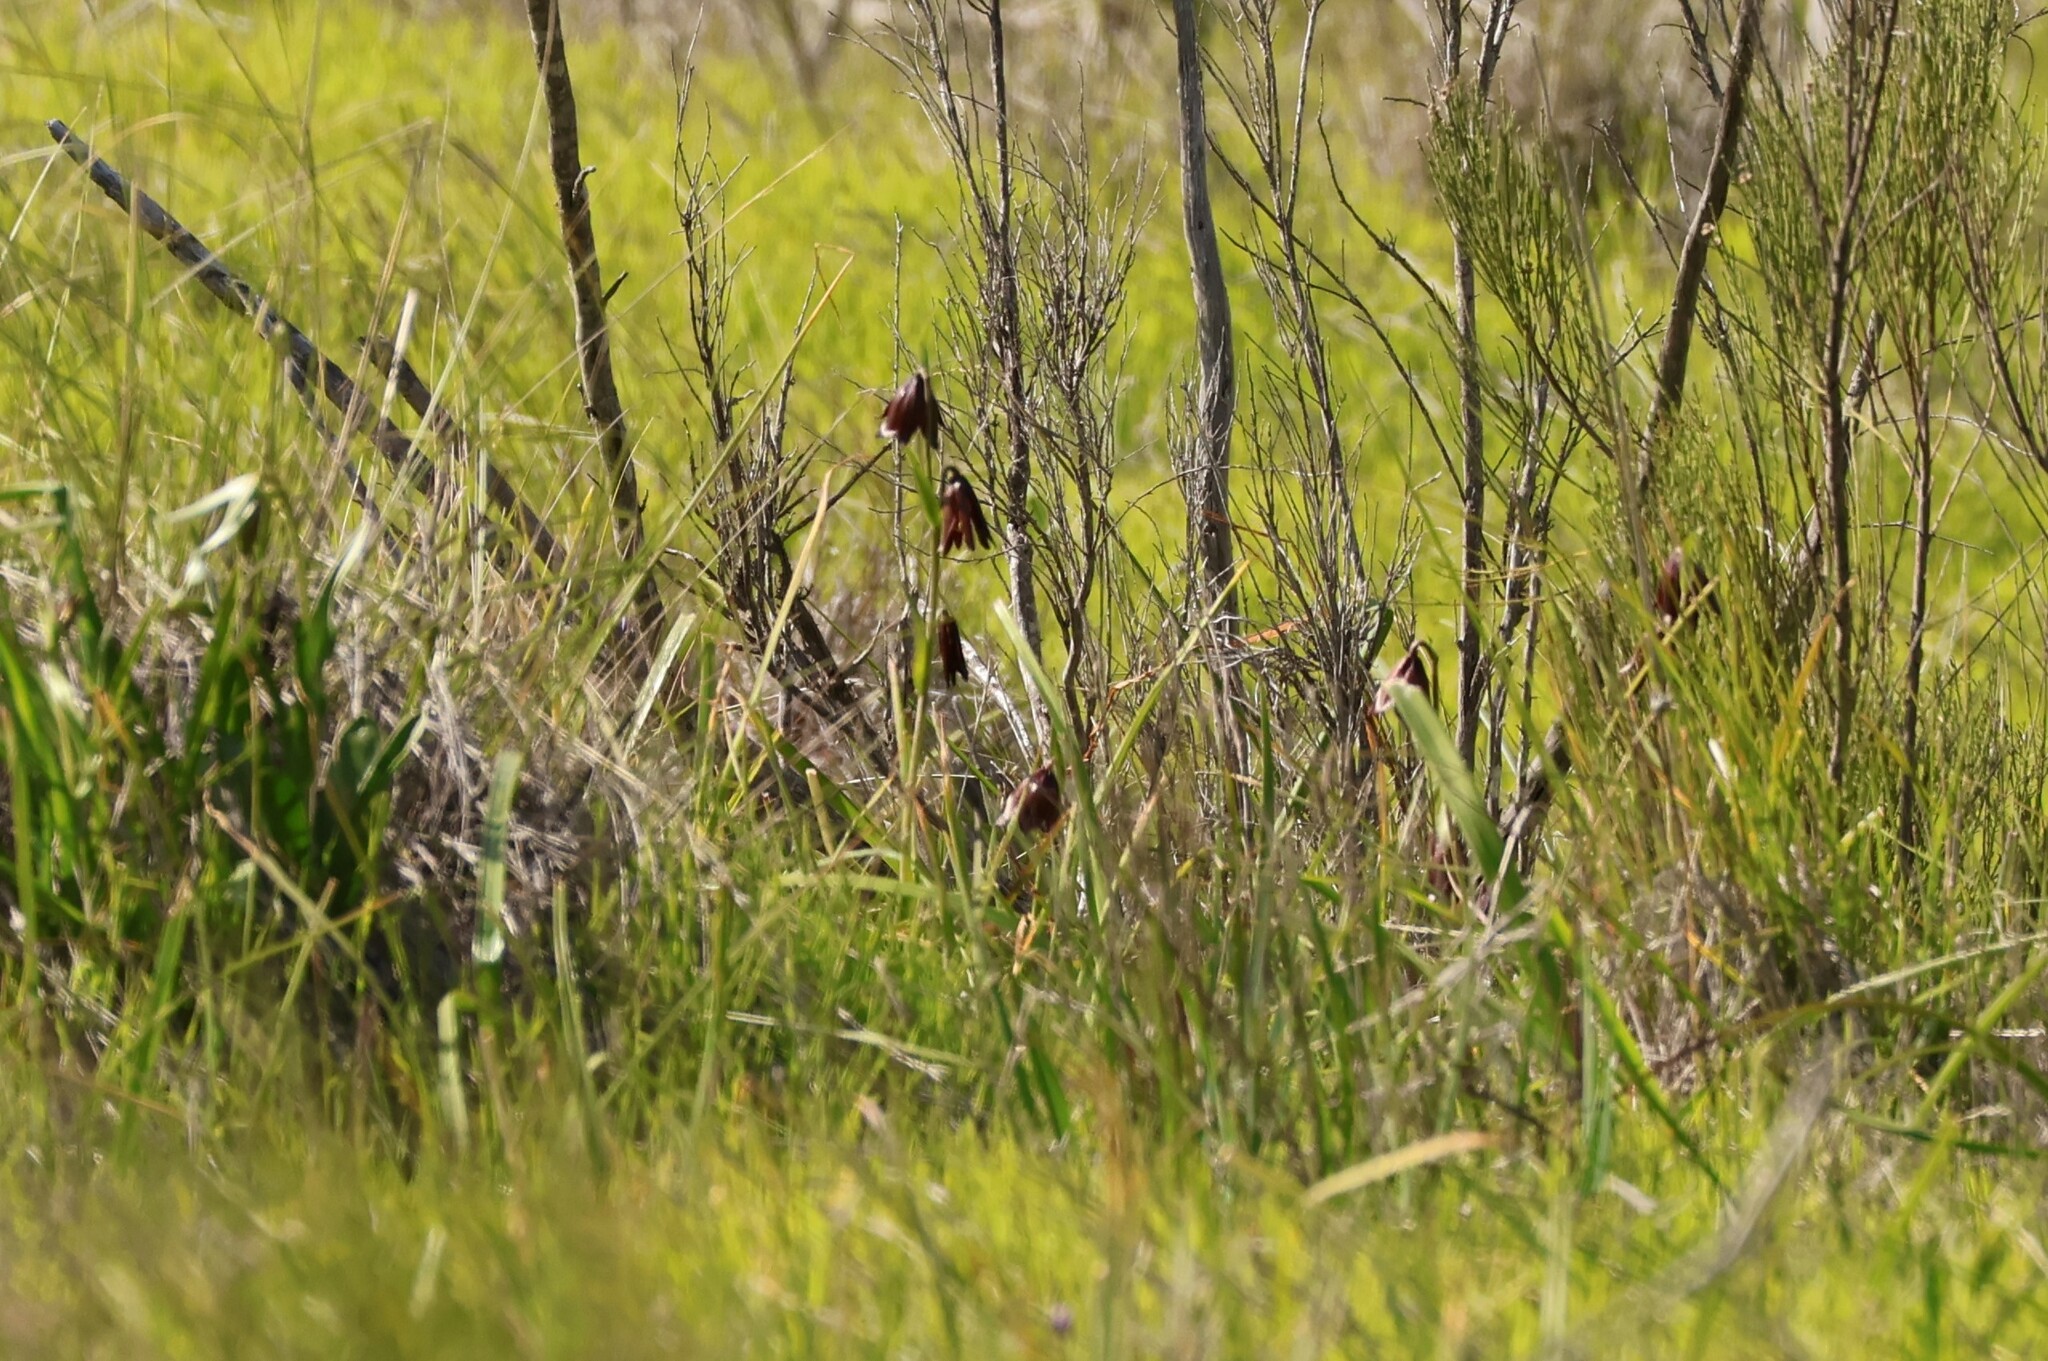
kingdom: Plantae
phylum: Tracheophyta
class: Liliopsida
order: Liliales
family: Liliaceae
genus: Fritillaria
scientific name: Fritillaria biflora
